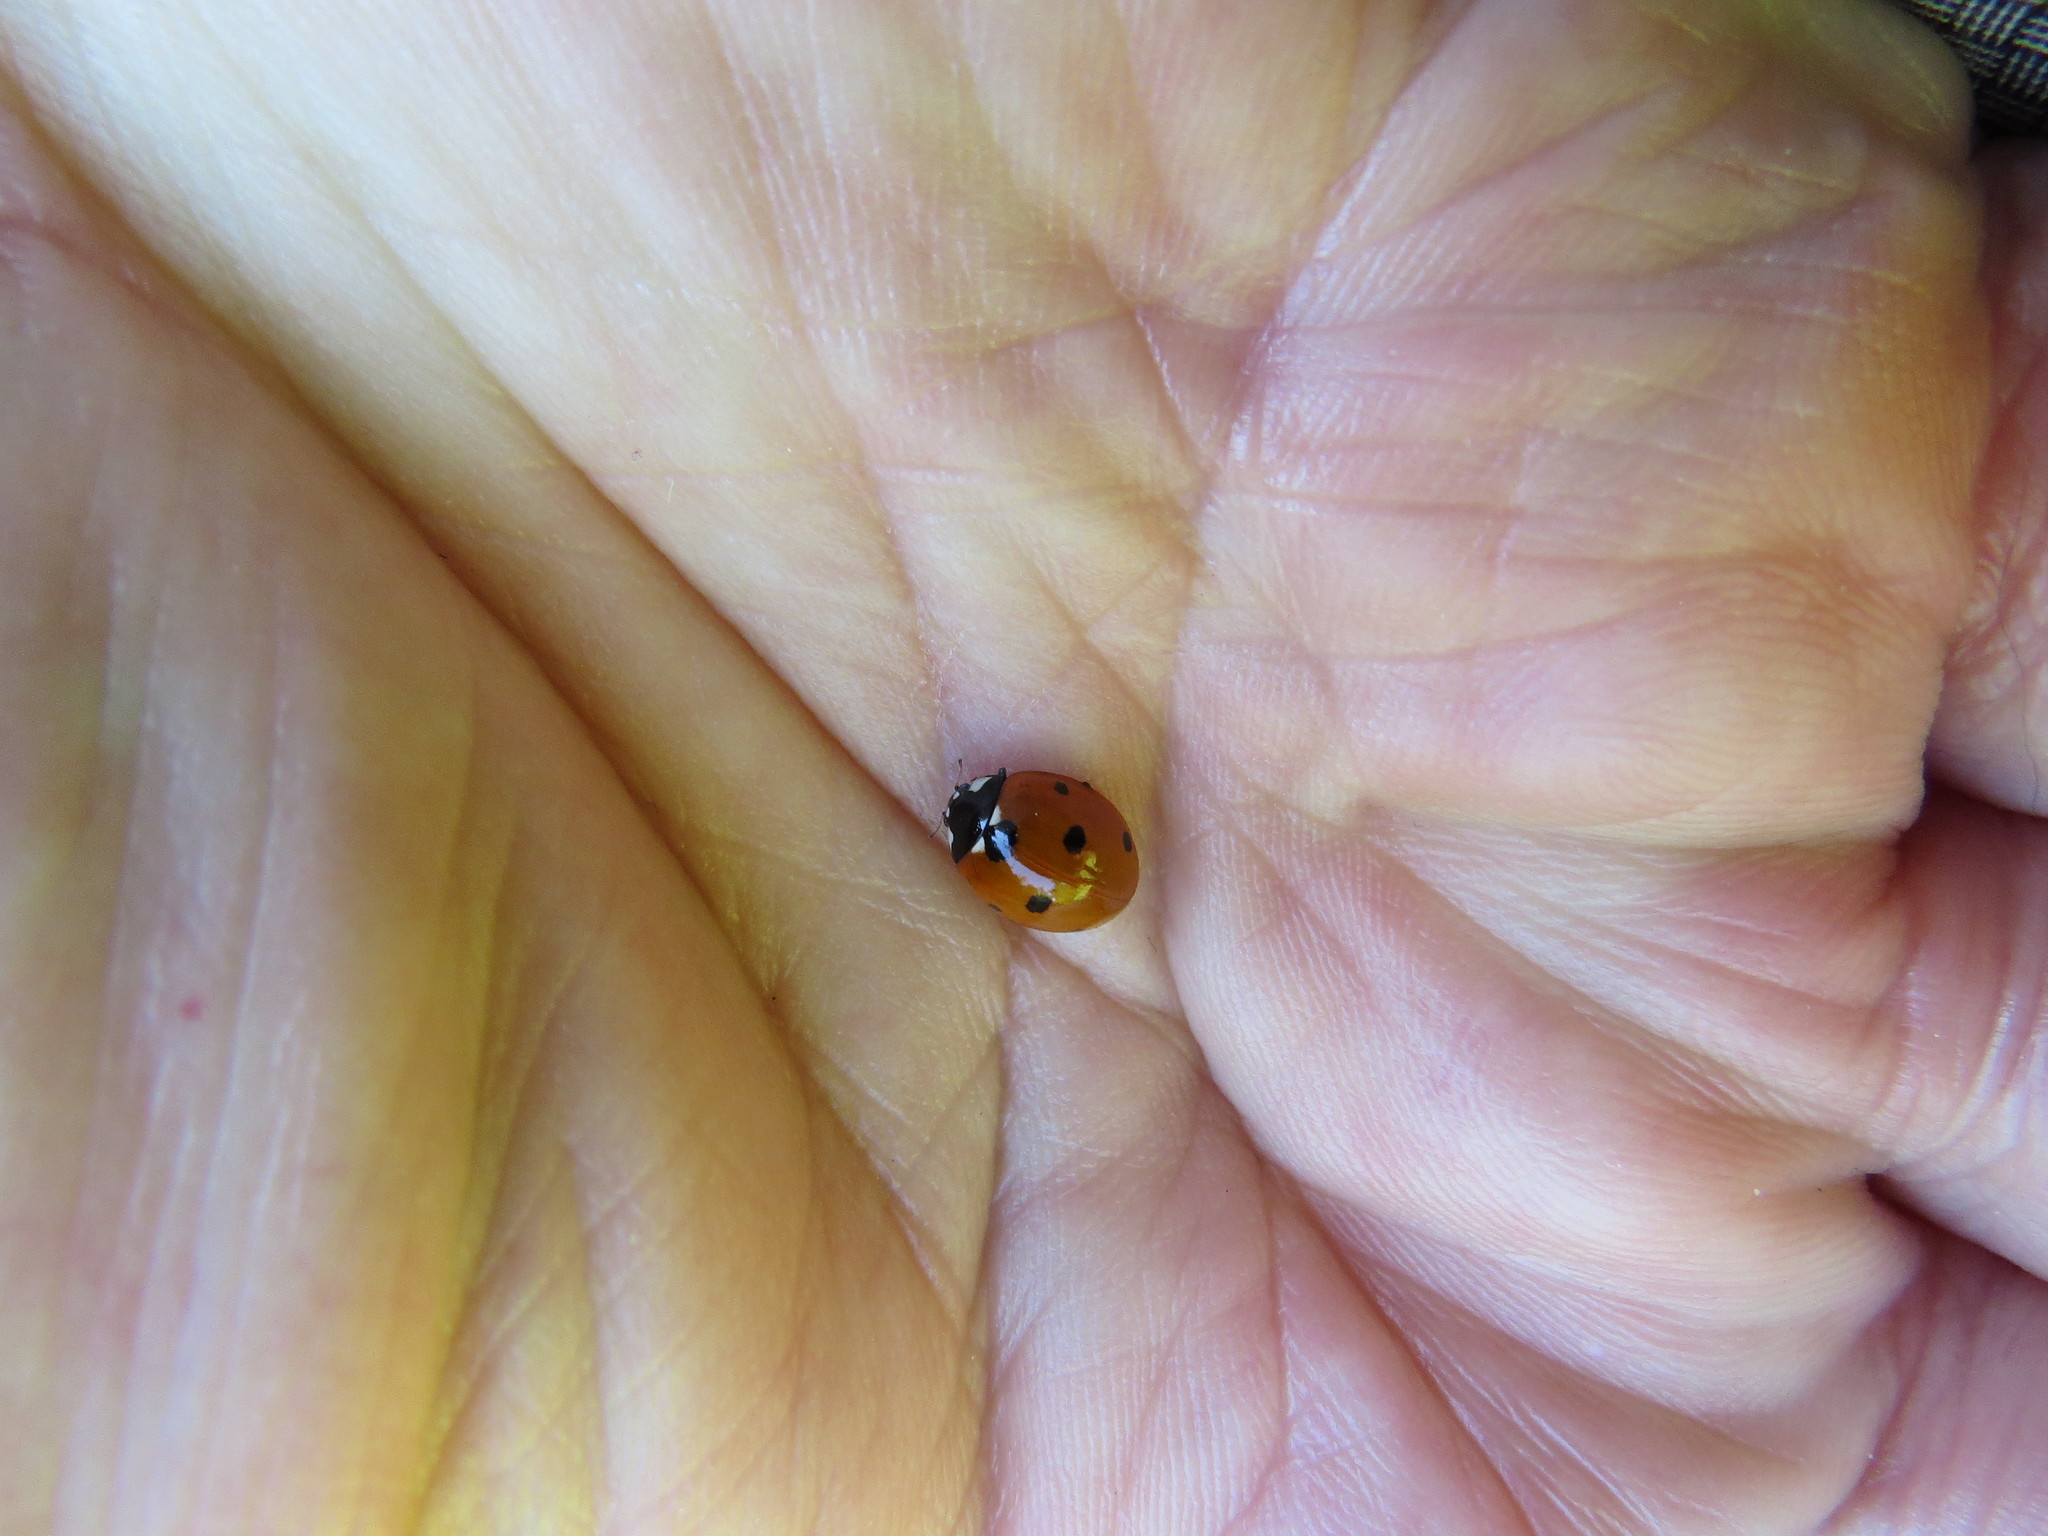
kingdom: Animalia
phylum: Arthropoda
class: Insecta
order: Coleoptera
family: Coccinellidae
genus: Coccinella
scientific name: Coccinella septempunctata
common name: Sevenspotted lady beetle
